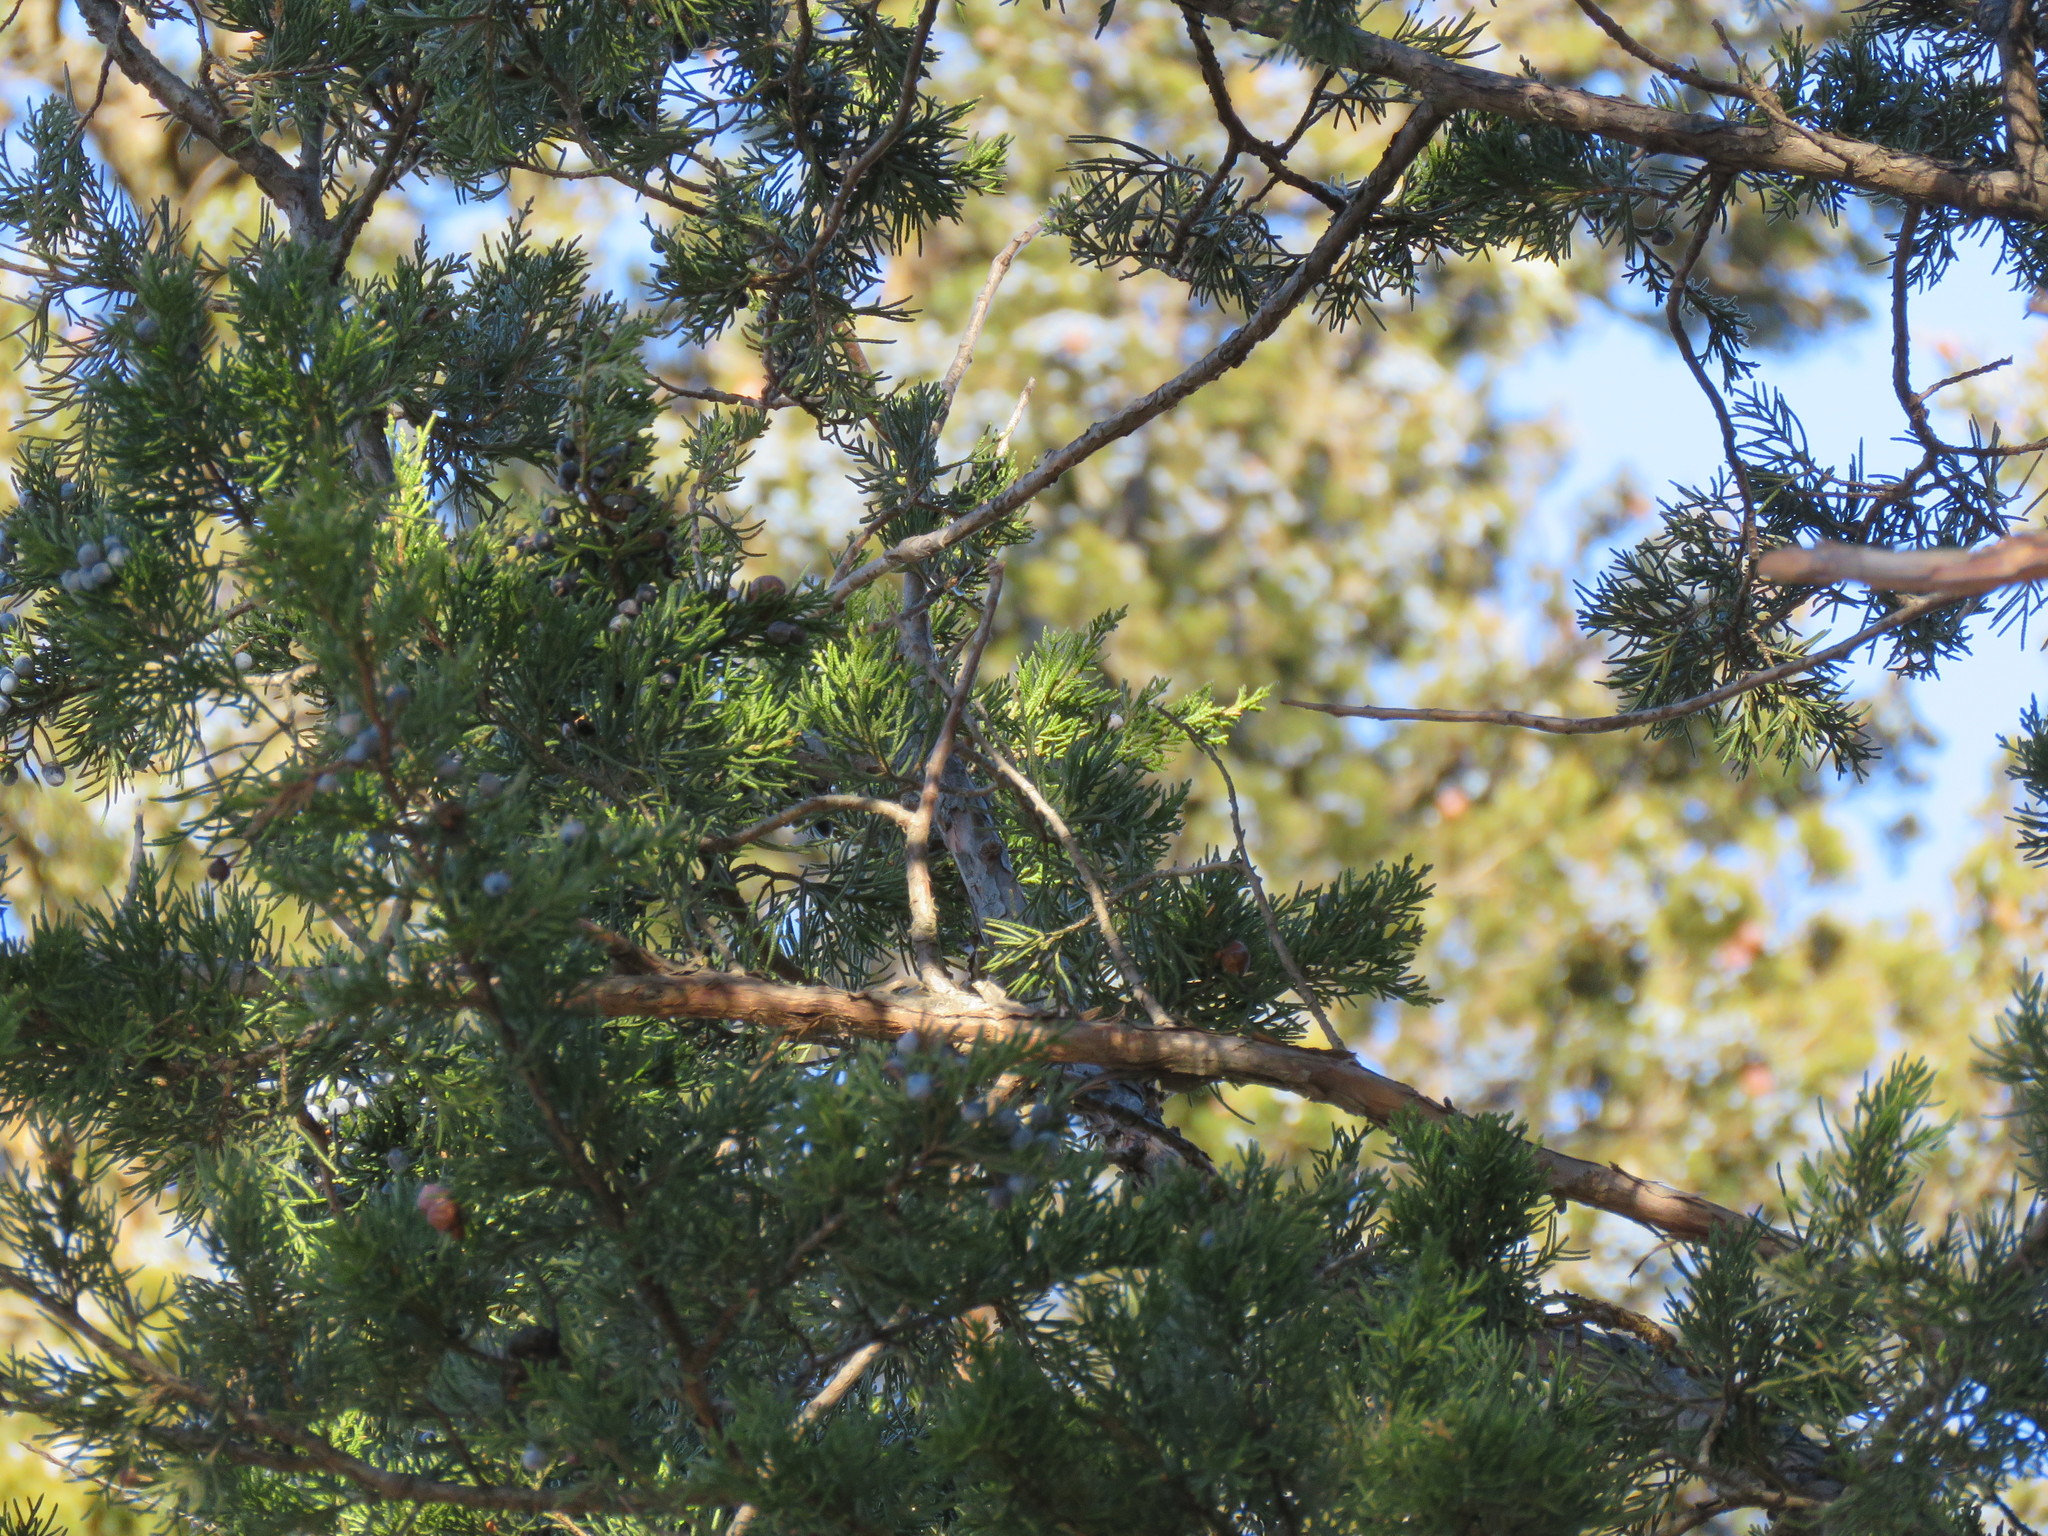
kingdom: Plantae
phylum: Tracheophyta
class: Pinopsida
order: Pinales
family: Cupressaceae
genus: Juniperus
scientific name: Juniperus virginiana
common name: Red juniper
